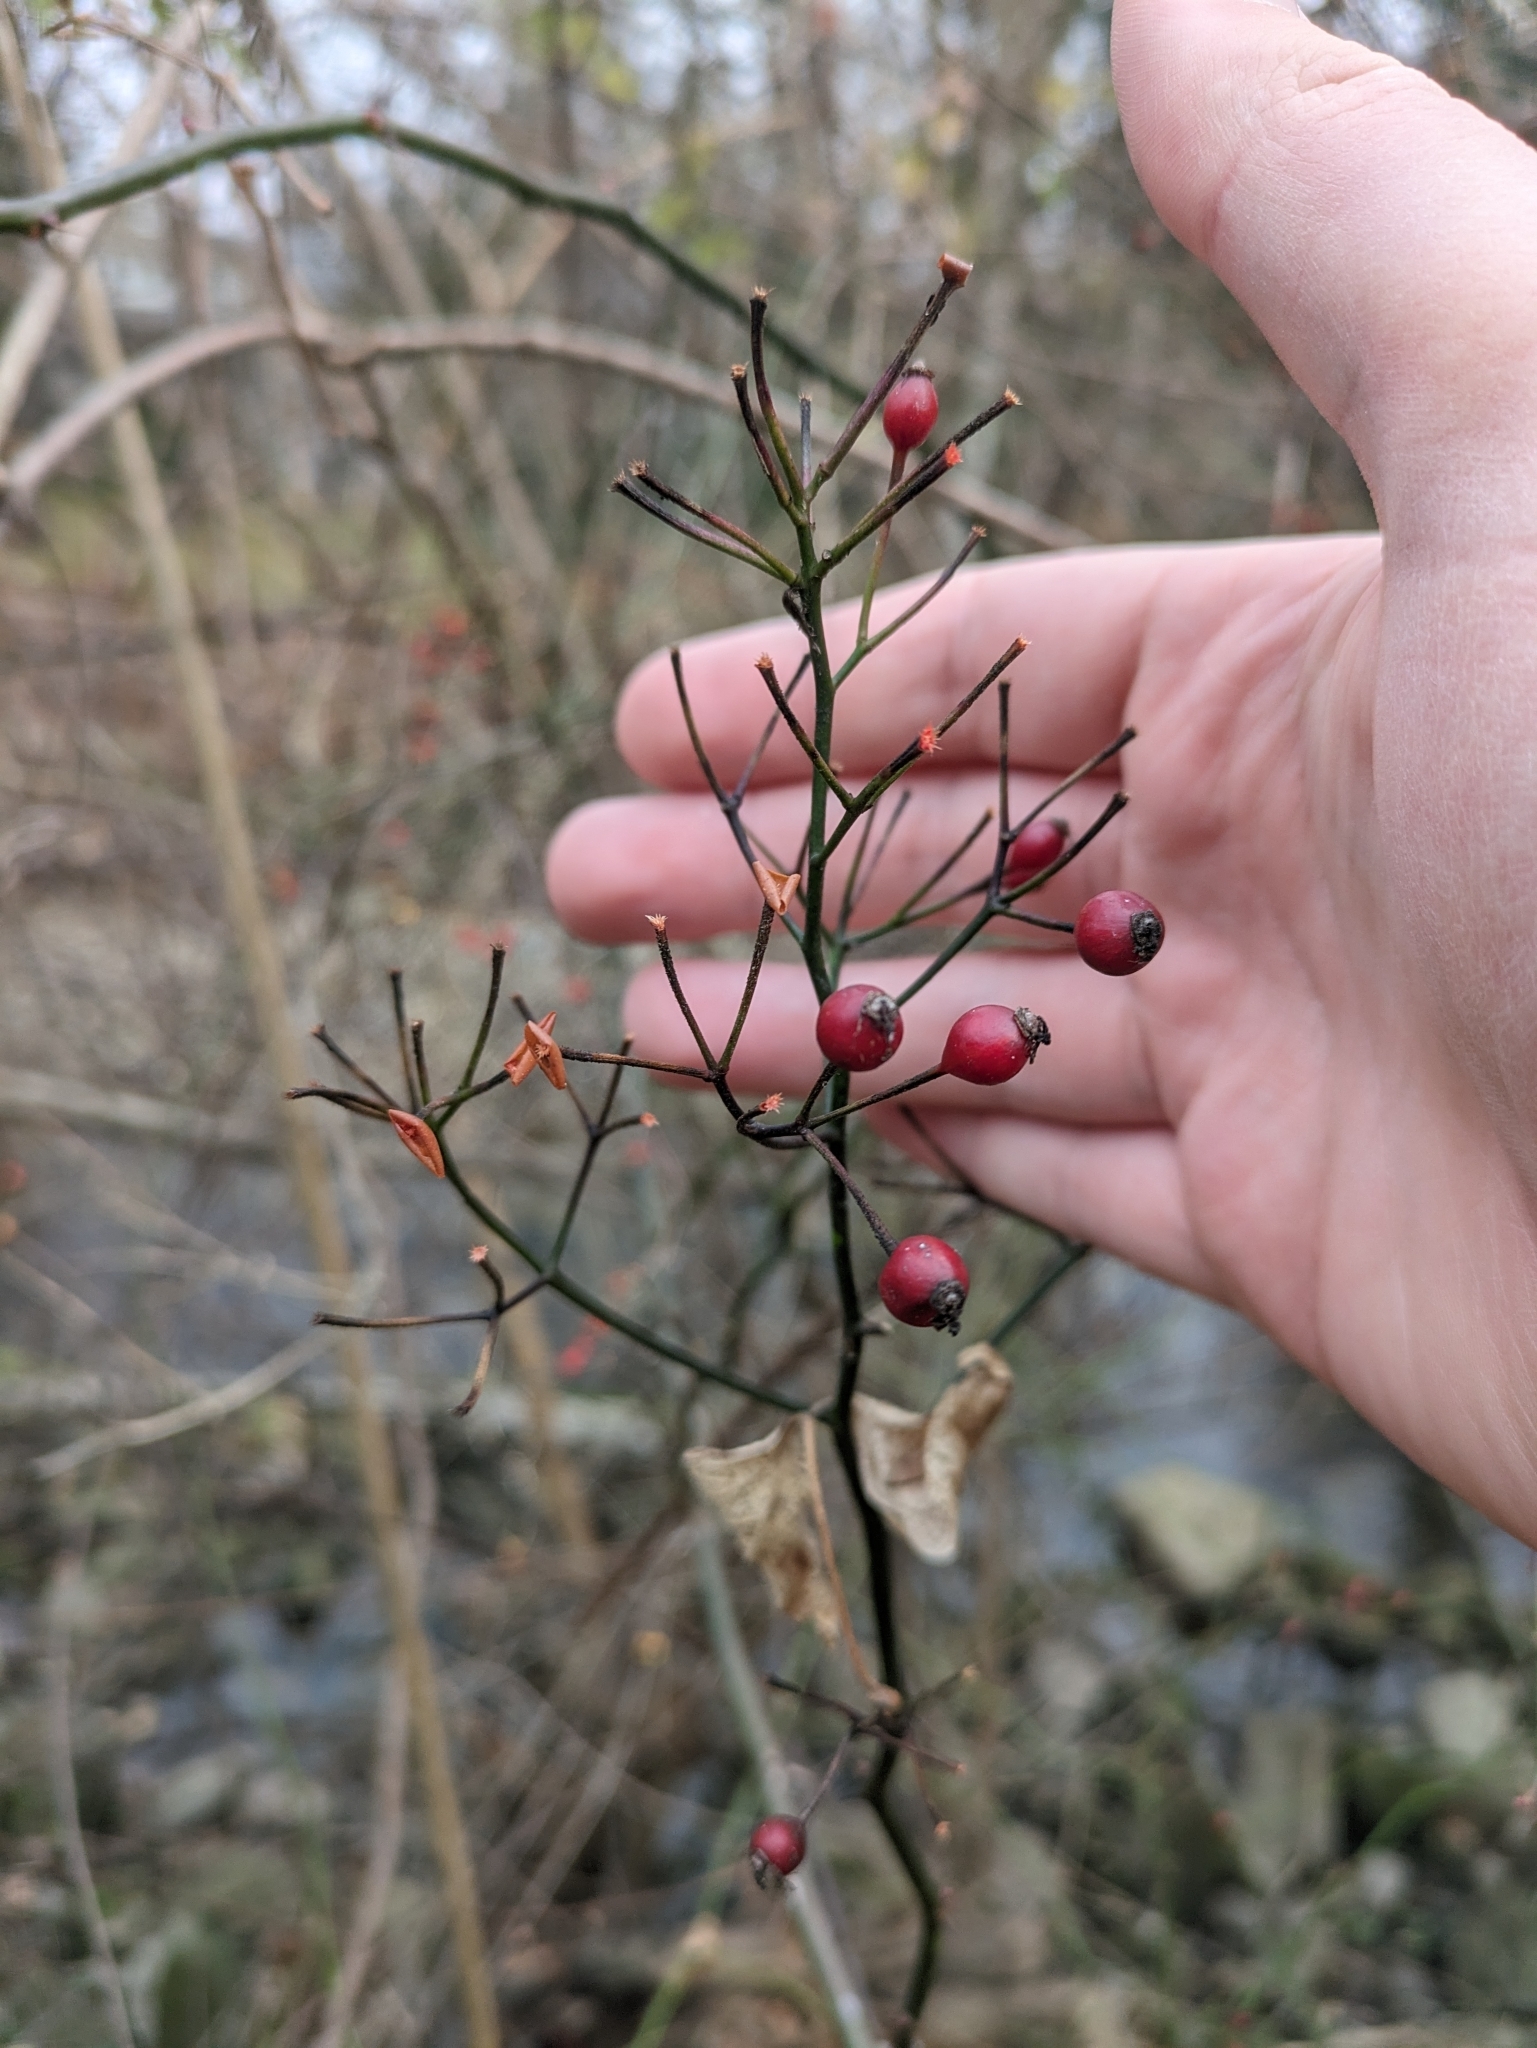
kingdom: Plantae
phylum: Tracheophyta
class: Magnoliopsida
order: Rosales
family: Rosaceae
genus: Rosa
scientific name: Rosa multiflora
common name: Multiflora rose
